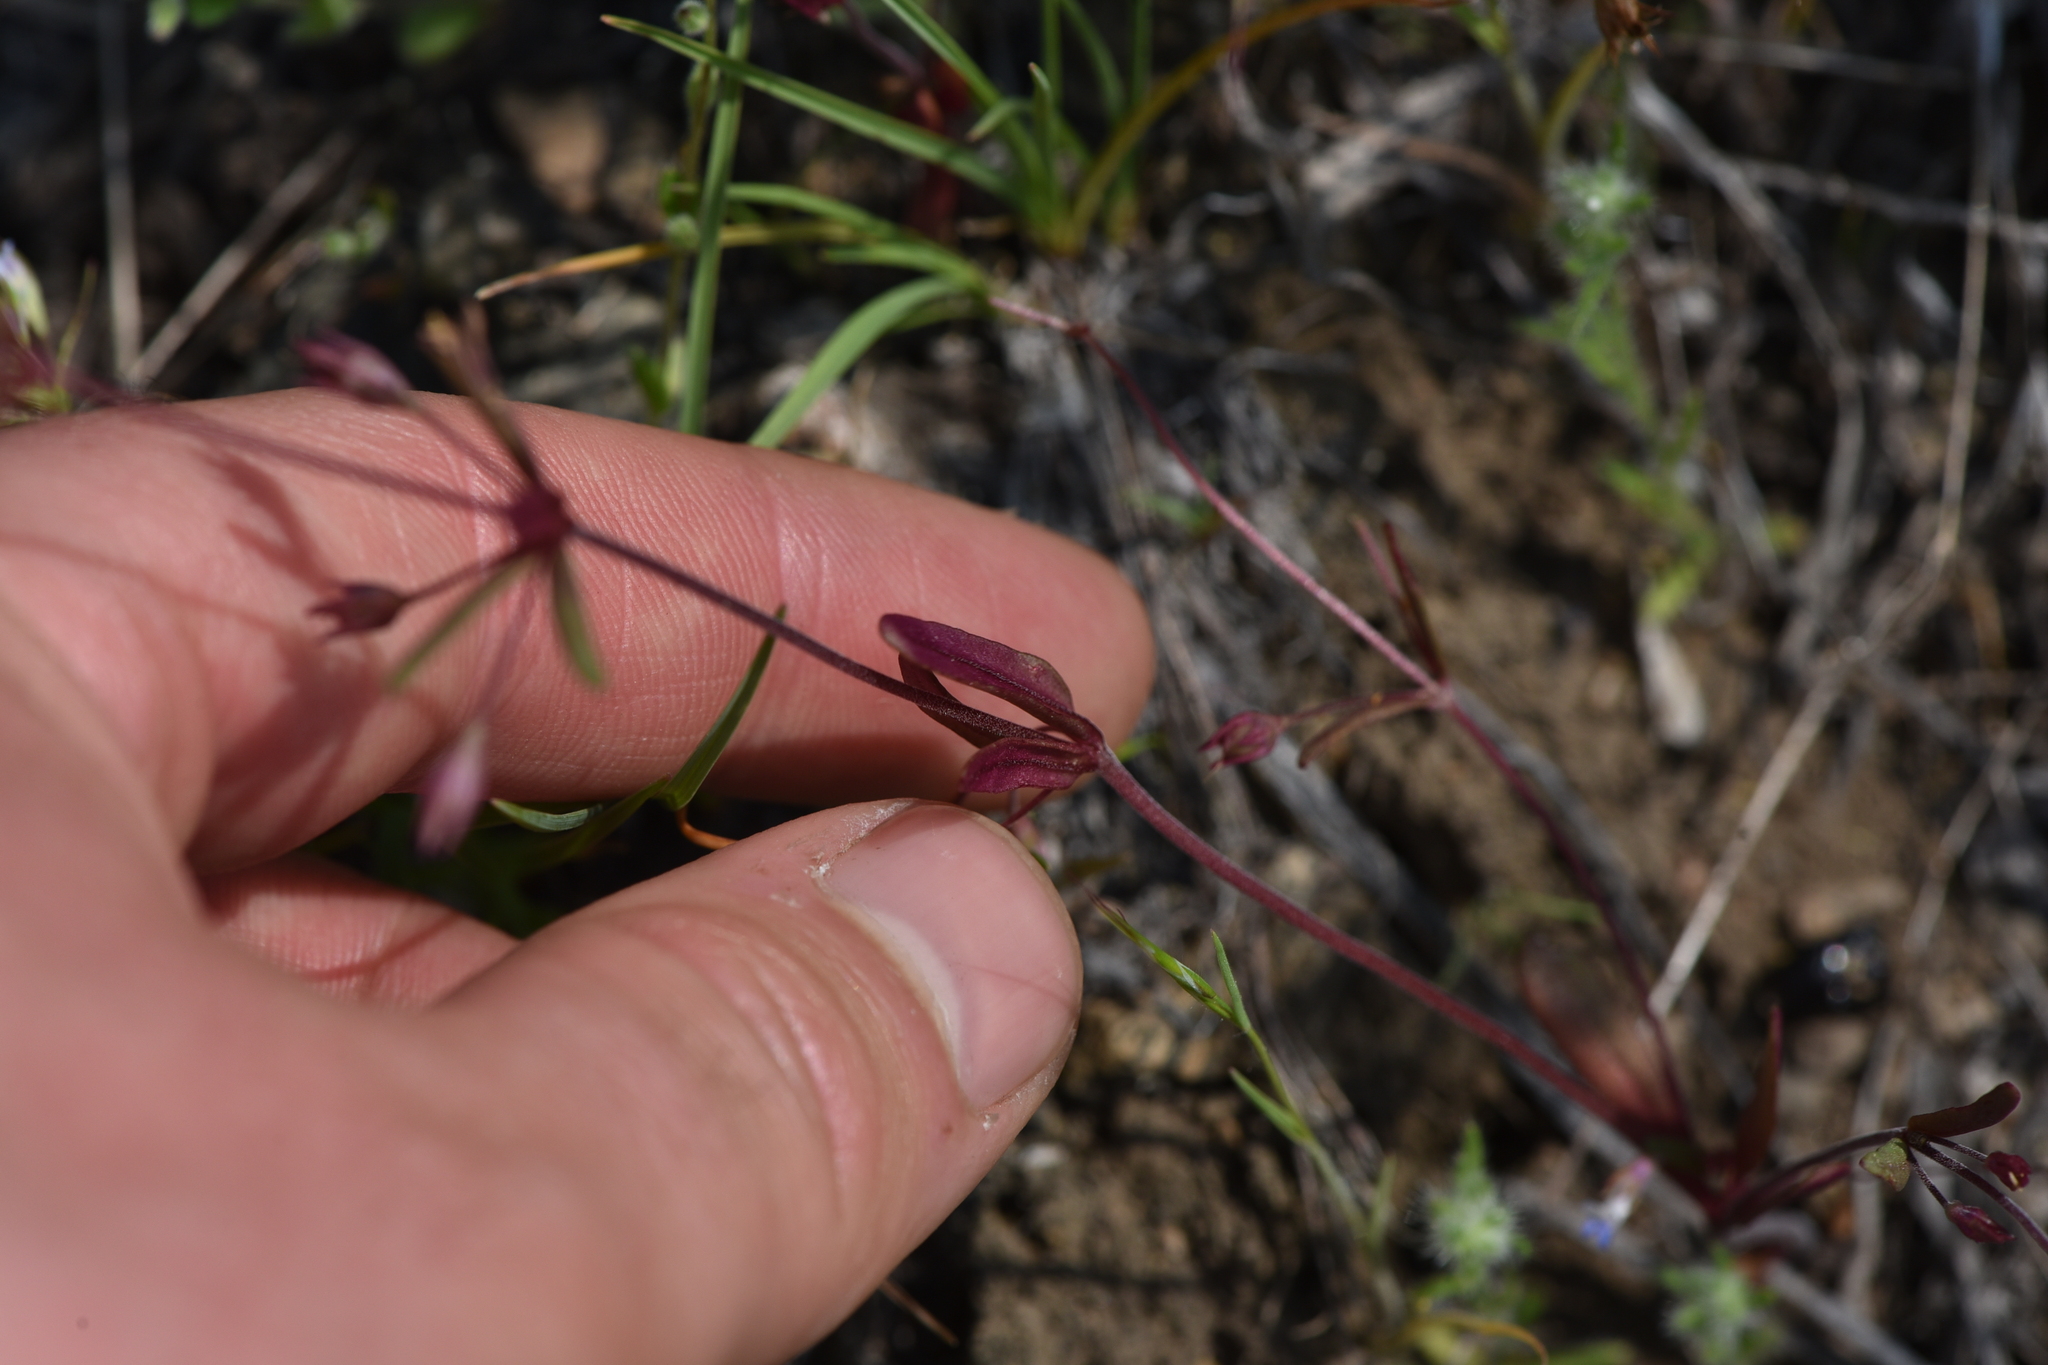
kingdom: Plantae
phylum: Tracheophyta
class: Magnoliopsida
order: Lamiales
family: Plantaginaceae
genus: Collinsia
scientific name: Collinsia parviflora
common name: Blue-lips
